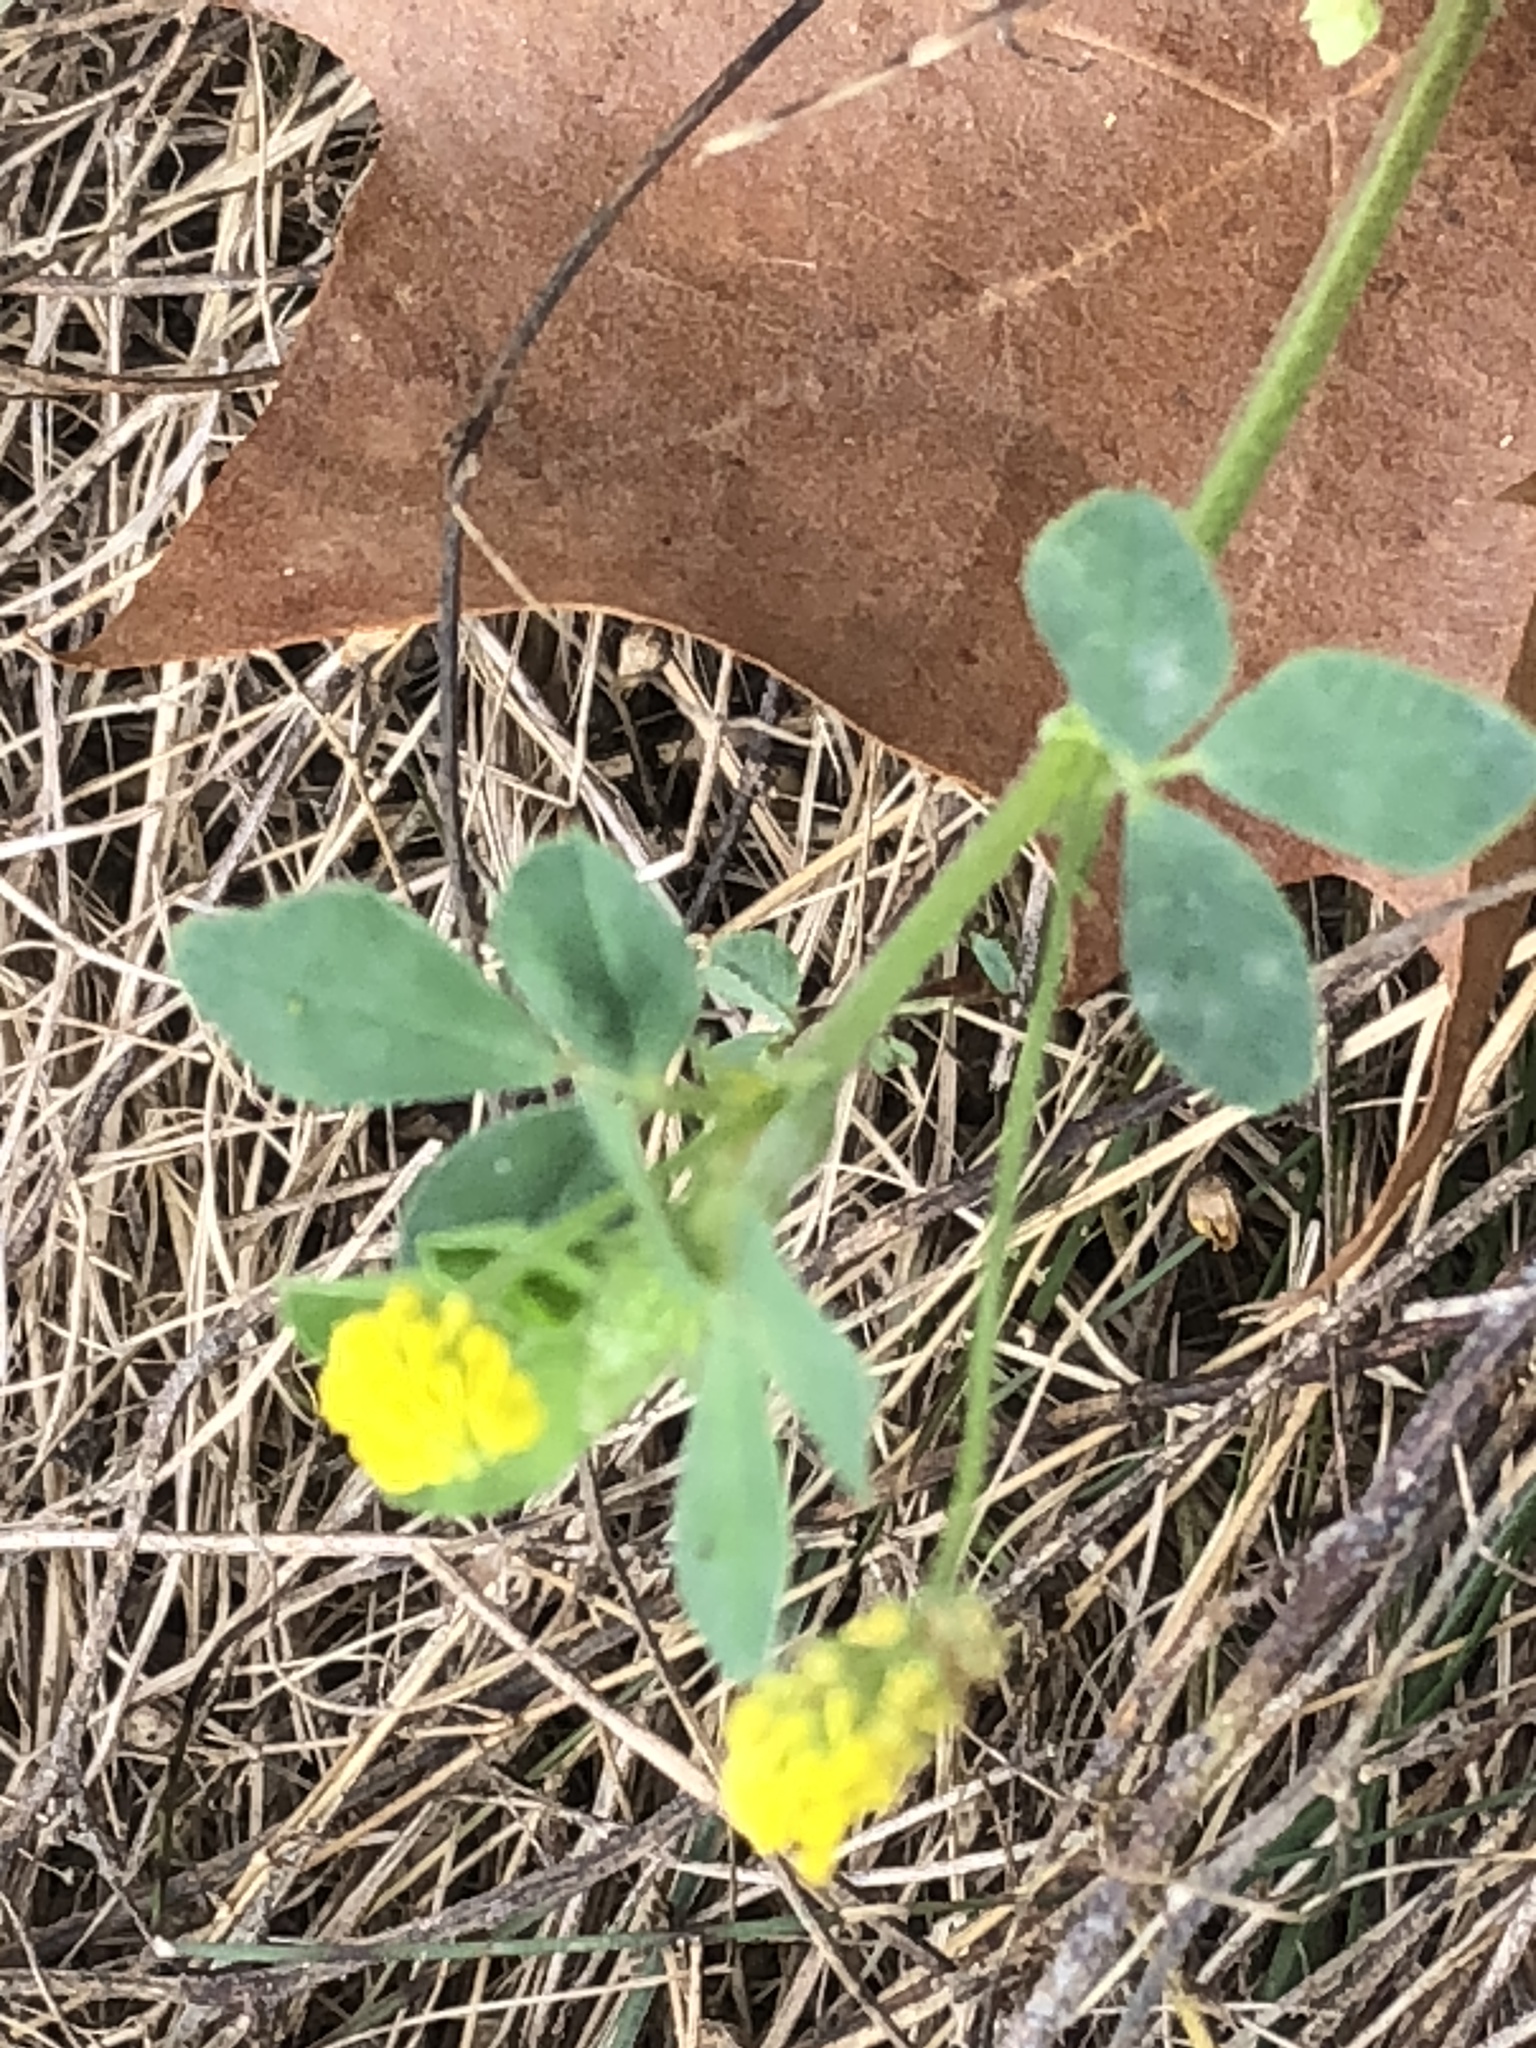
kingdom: Plantae
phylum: Tracheophyta
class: Magnoliopsida
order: Fabales
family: Fabaceae
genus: Medicago
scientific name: Medicago lupulina
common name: Black medick
